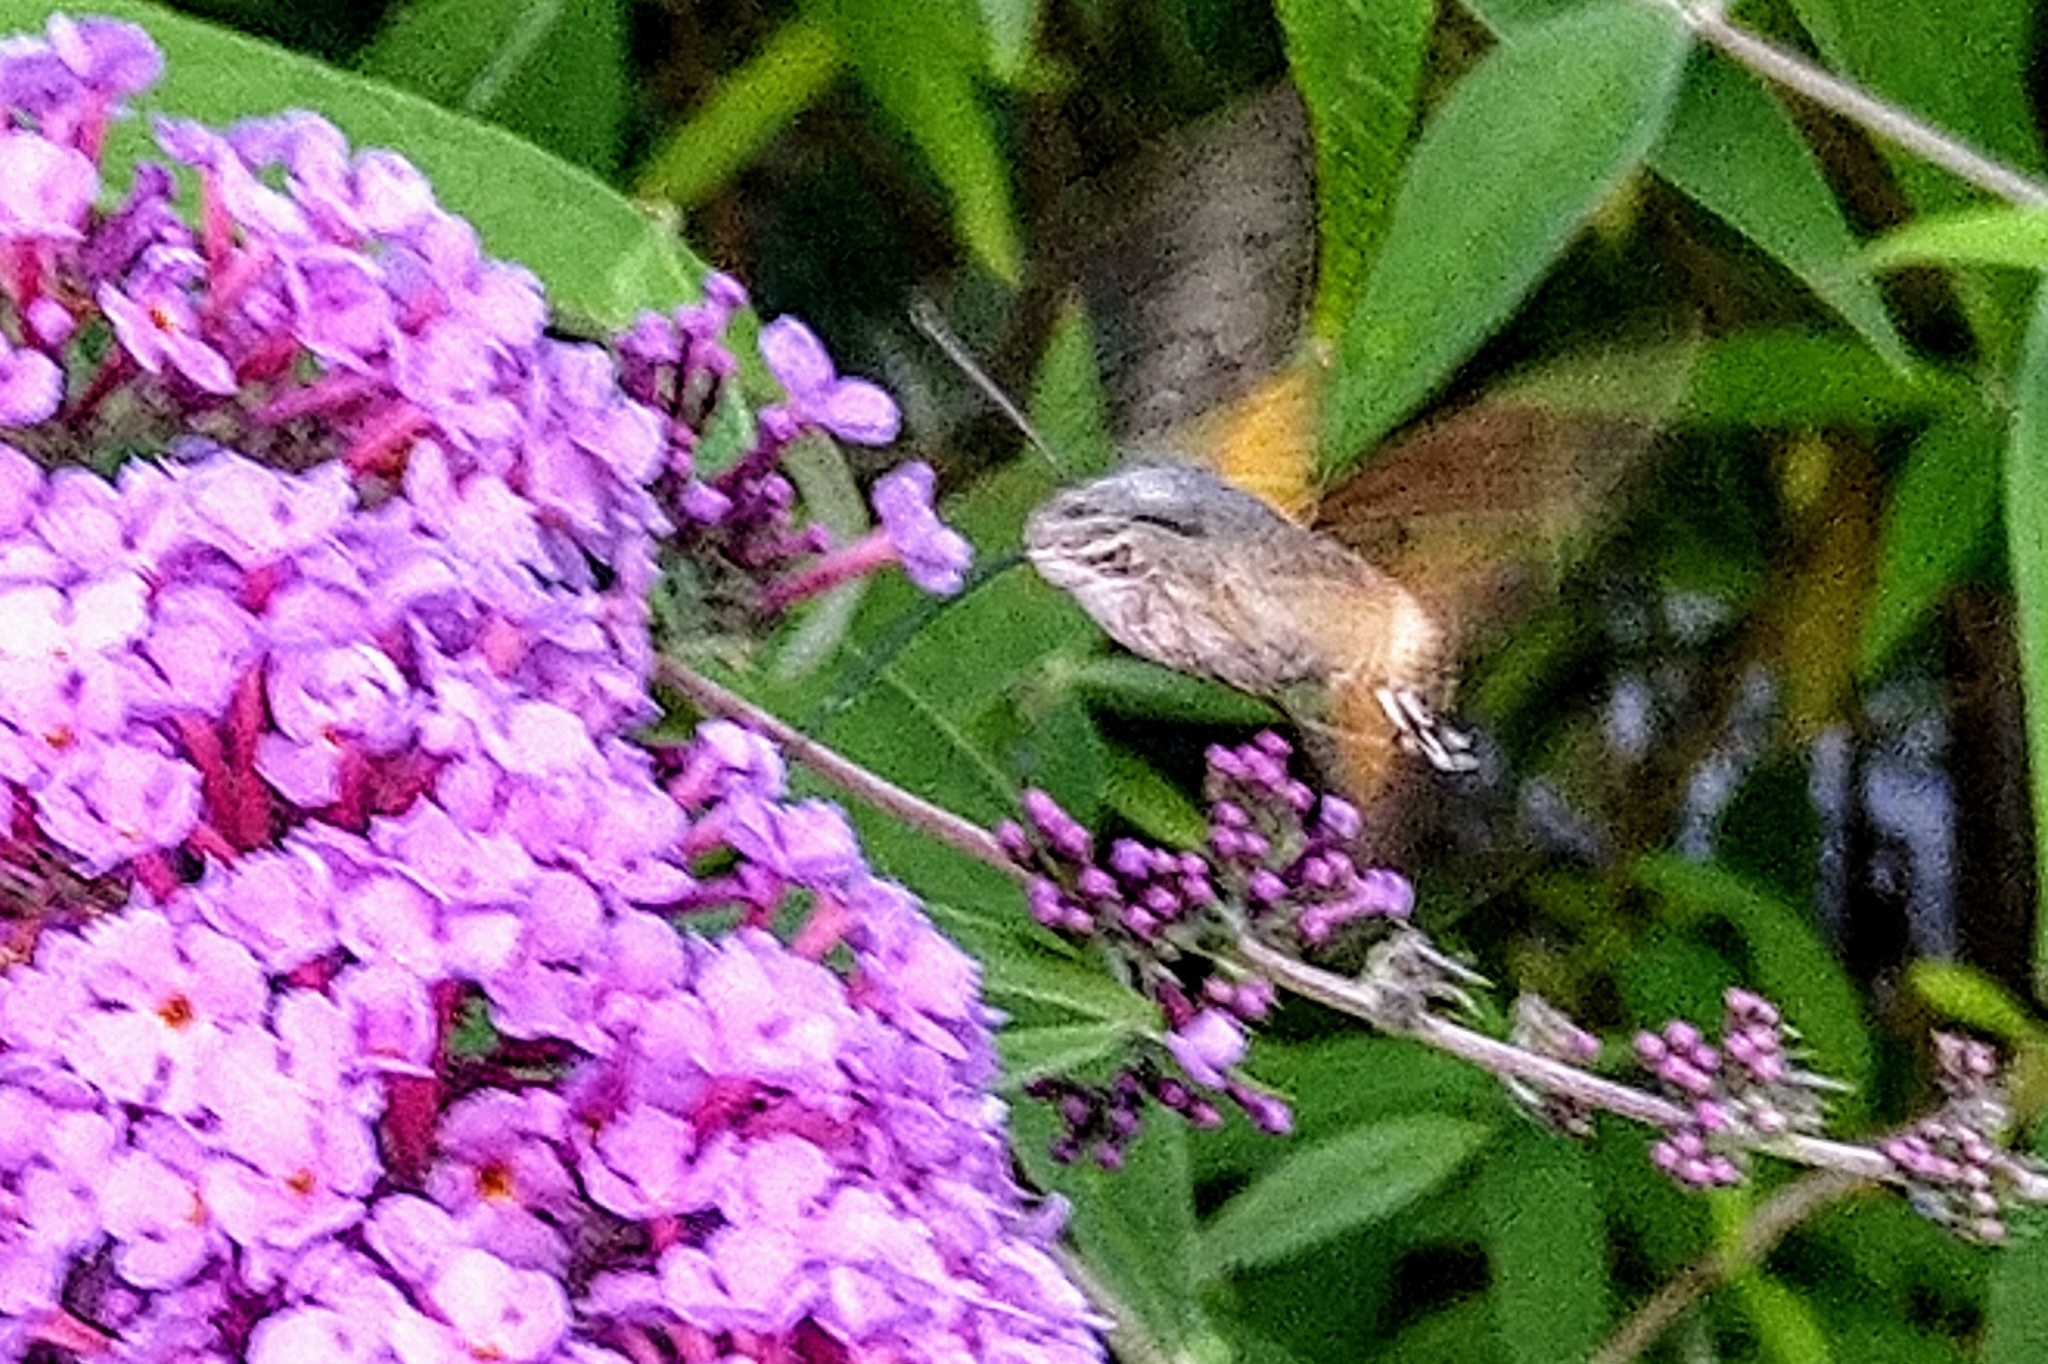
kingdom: Animalia
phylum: Arthropoda
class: Insecta
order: Lepidoptera
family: Sphingidae
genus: Macroglossum
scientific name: Macroglossum stellatarum
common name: Humming-bird hawk-moth
